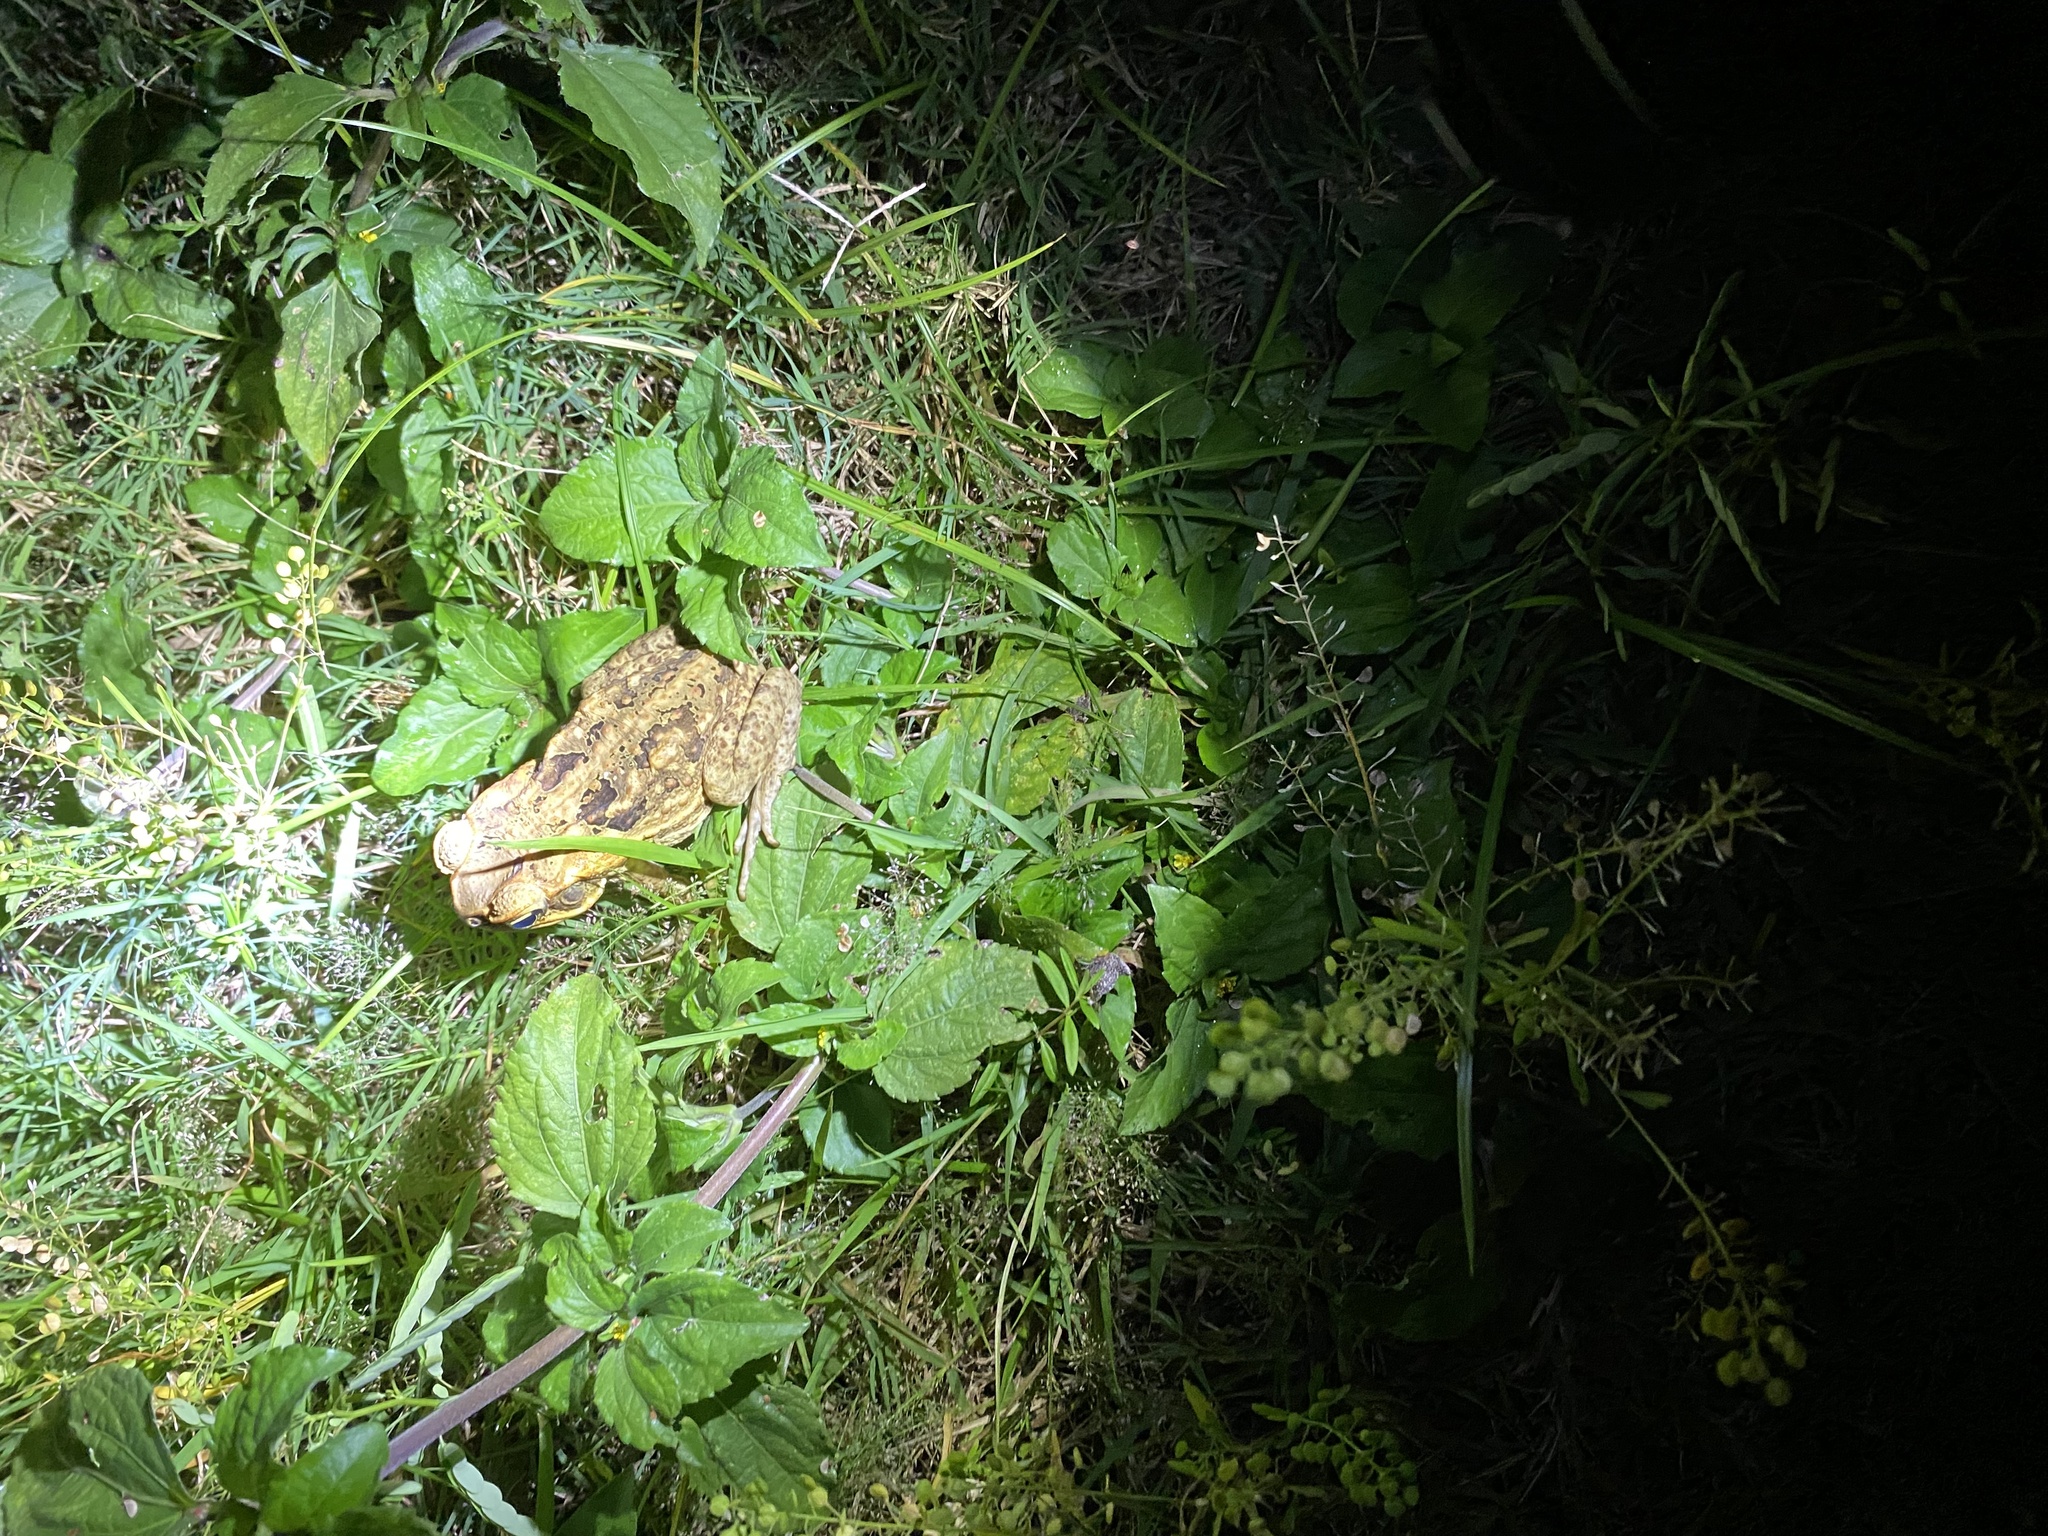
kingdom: Animalia
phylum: Chordata
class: Amphibia
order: Anura
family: Bufonidae
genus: Rhinella
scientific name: Rhinella marina
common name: Cane toad
